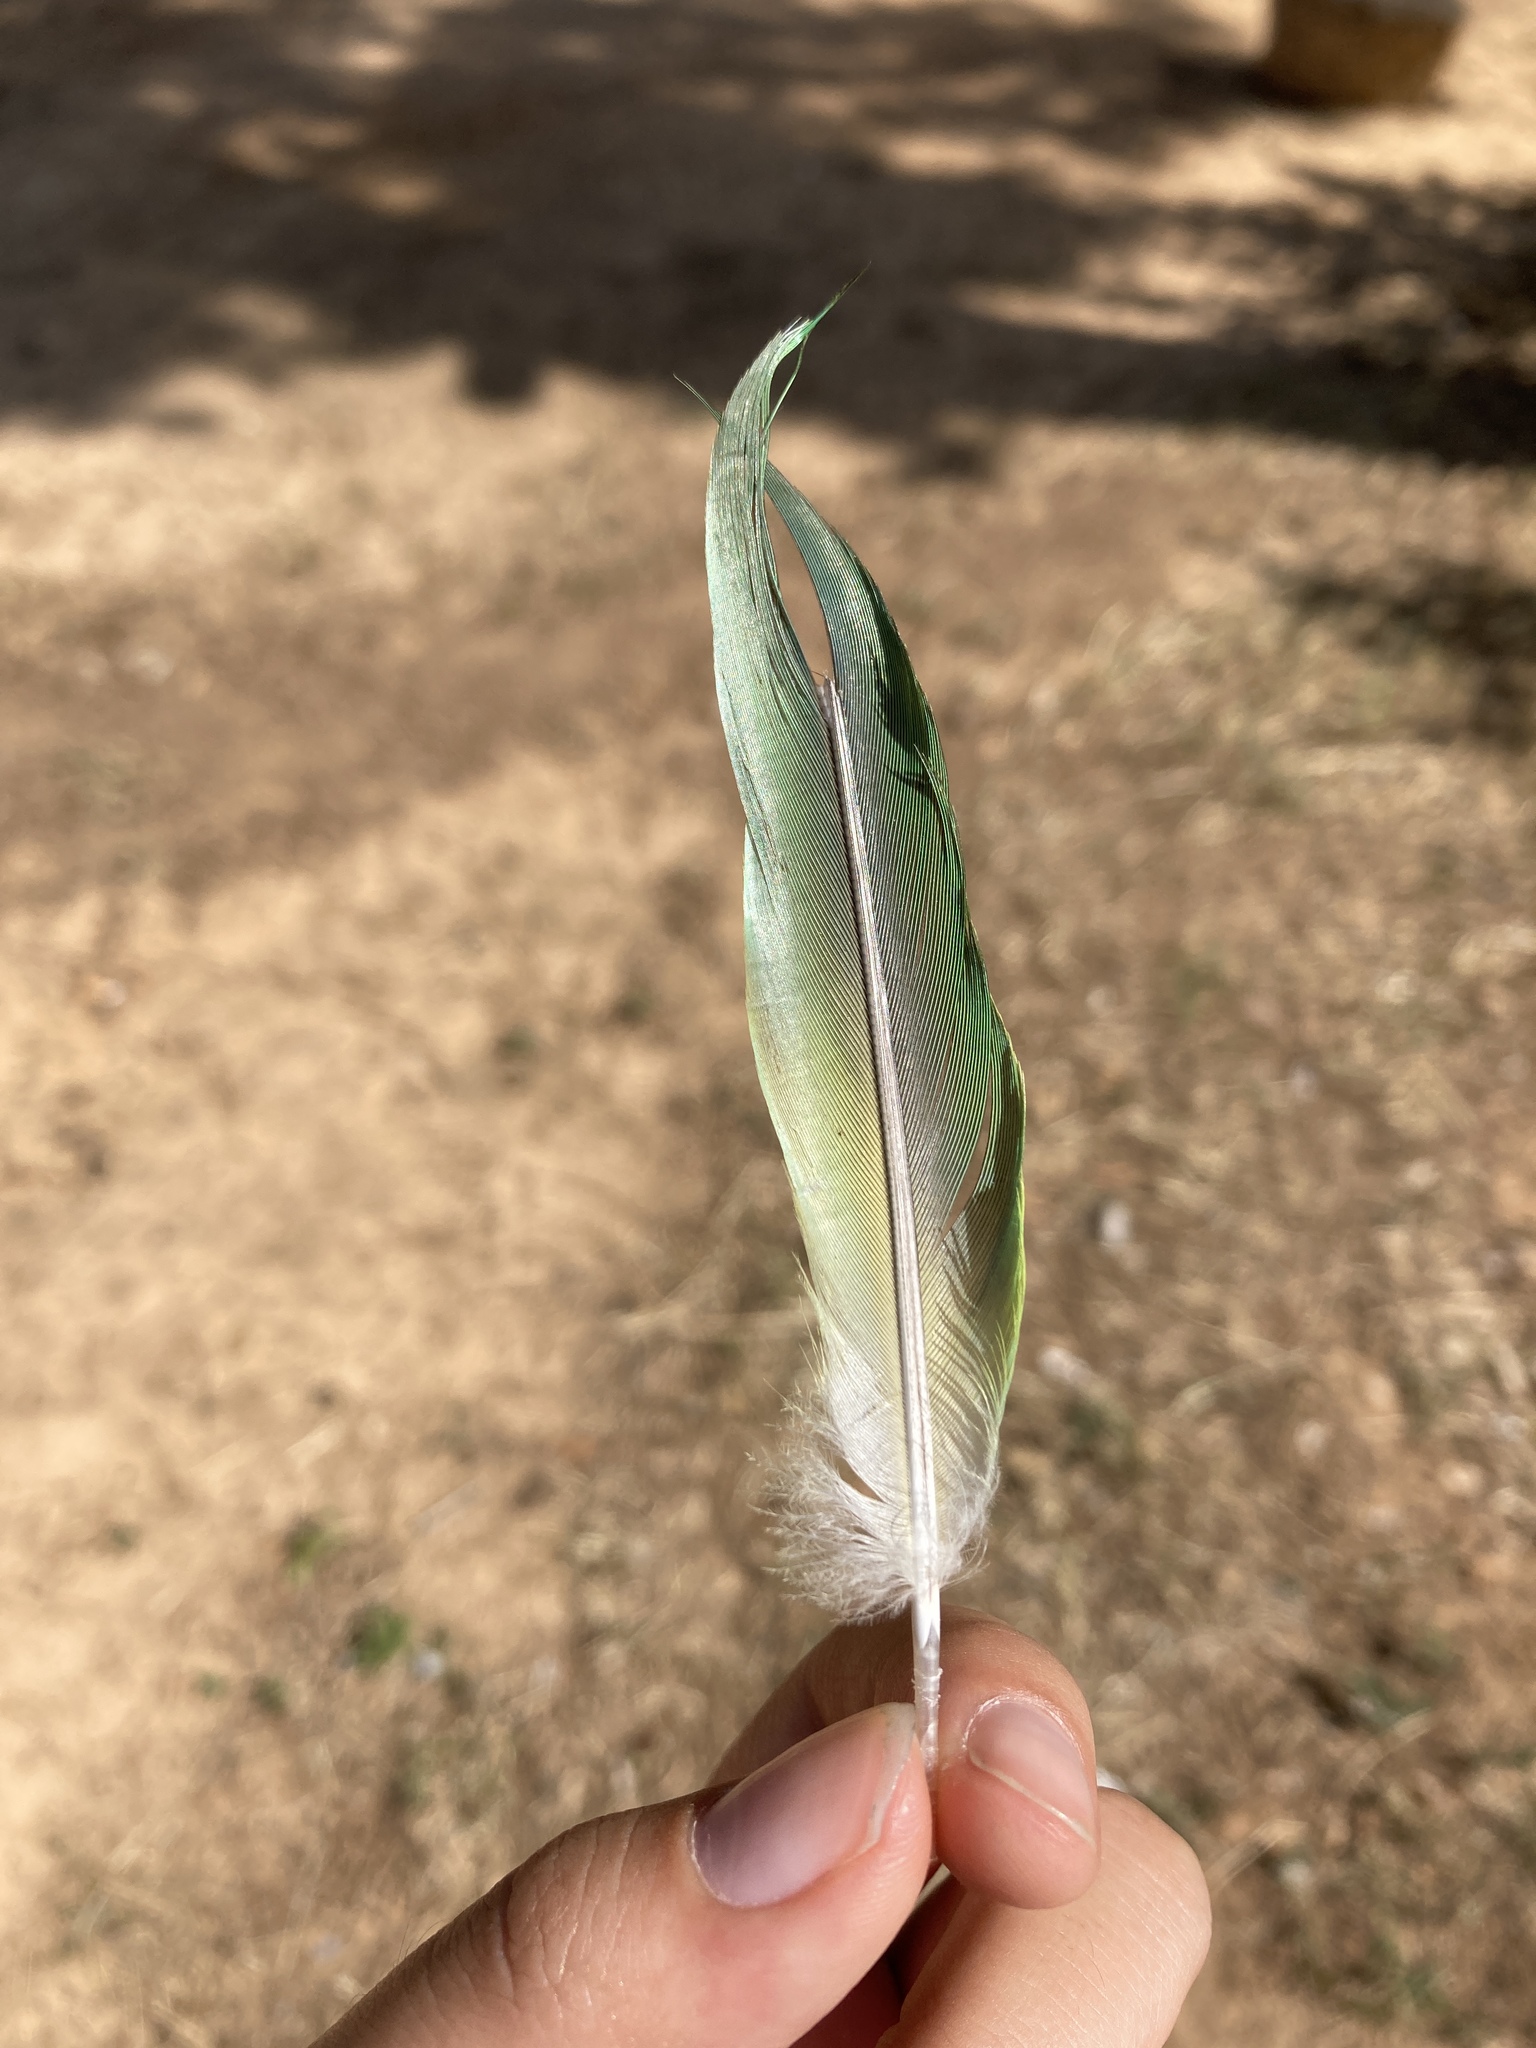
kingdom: Animalia
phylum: Chordata
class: Aves
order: Psittaciformes
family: Psittacidae
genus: Myiopsitta
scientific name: Myiopsitta monachus
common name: Monk parakeet
